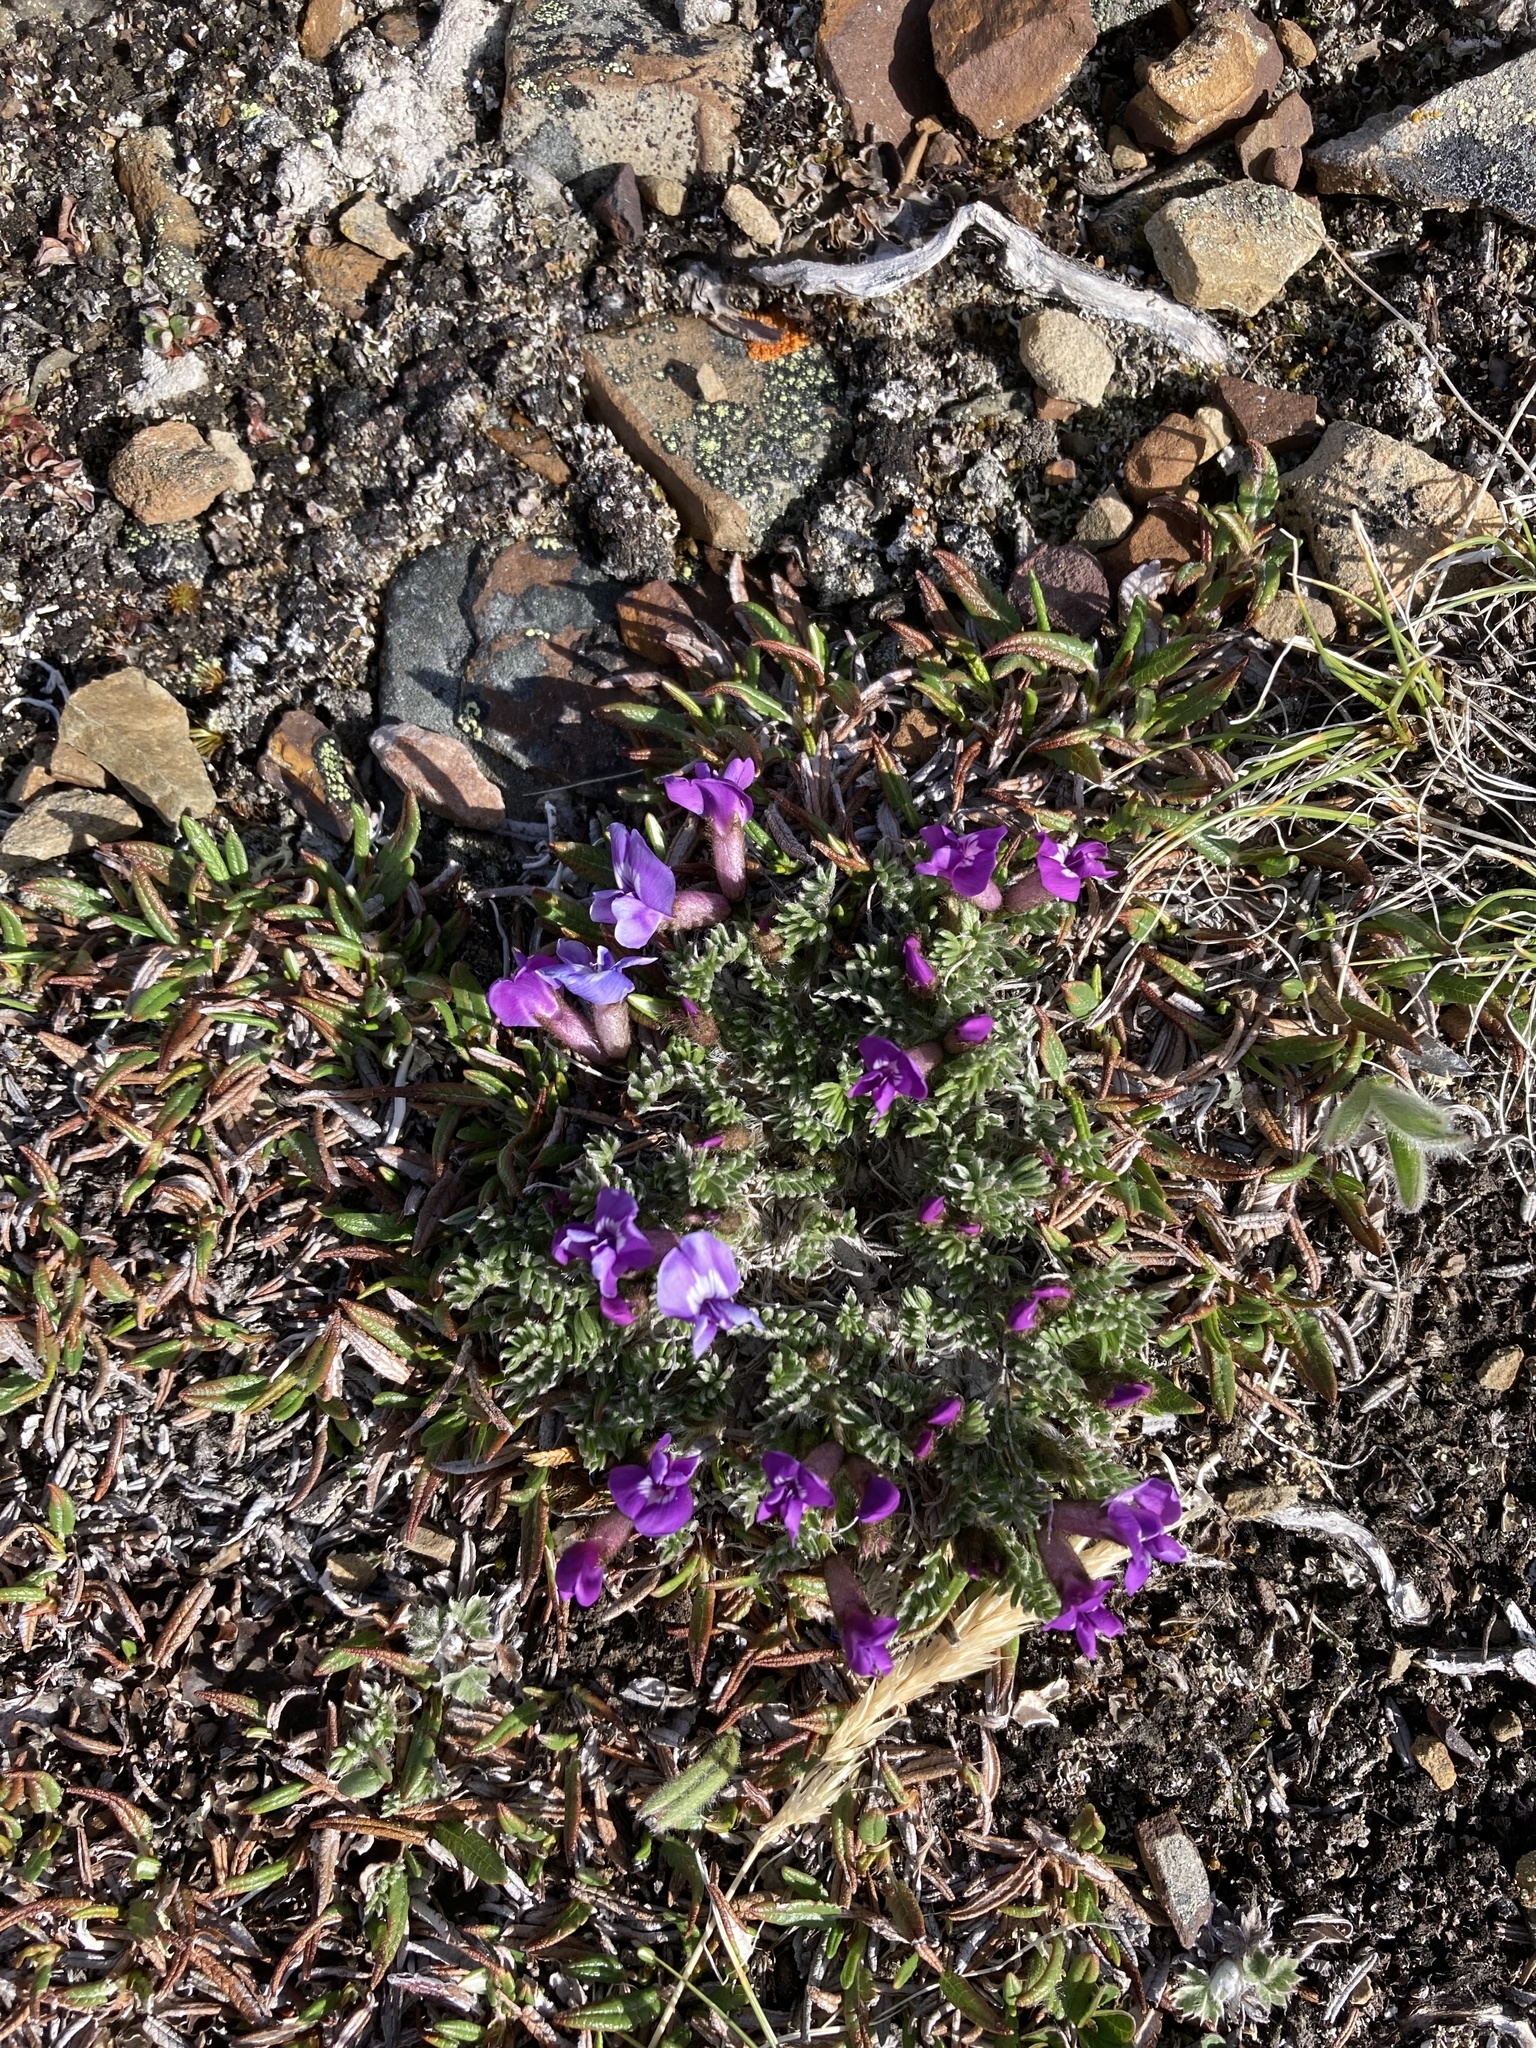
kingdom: Plantae
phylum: Tracheophyta
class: Magnoliopsida
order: Fabales
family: Fabaceae
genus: Oxytropis
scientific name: Oxytropis podocarpa
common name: Gray's oxytrope
